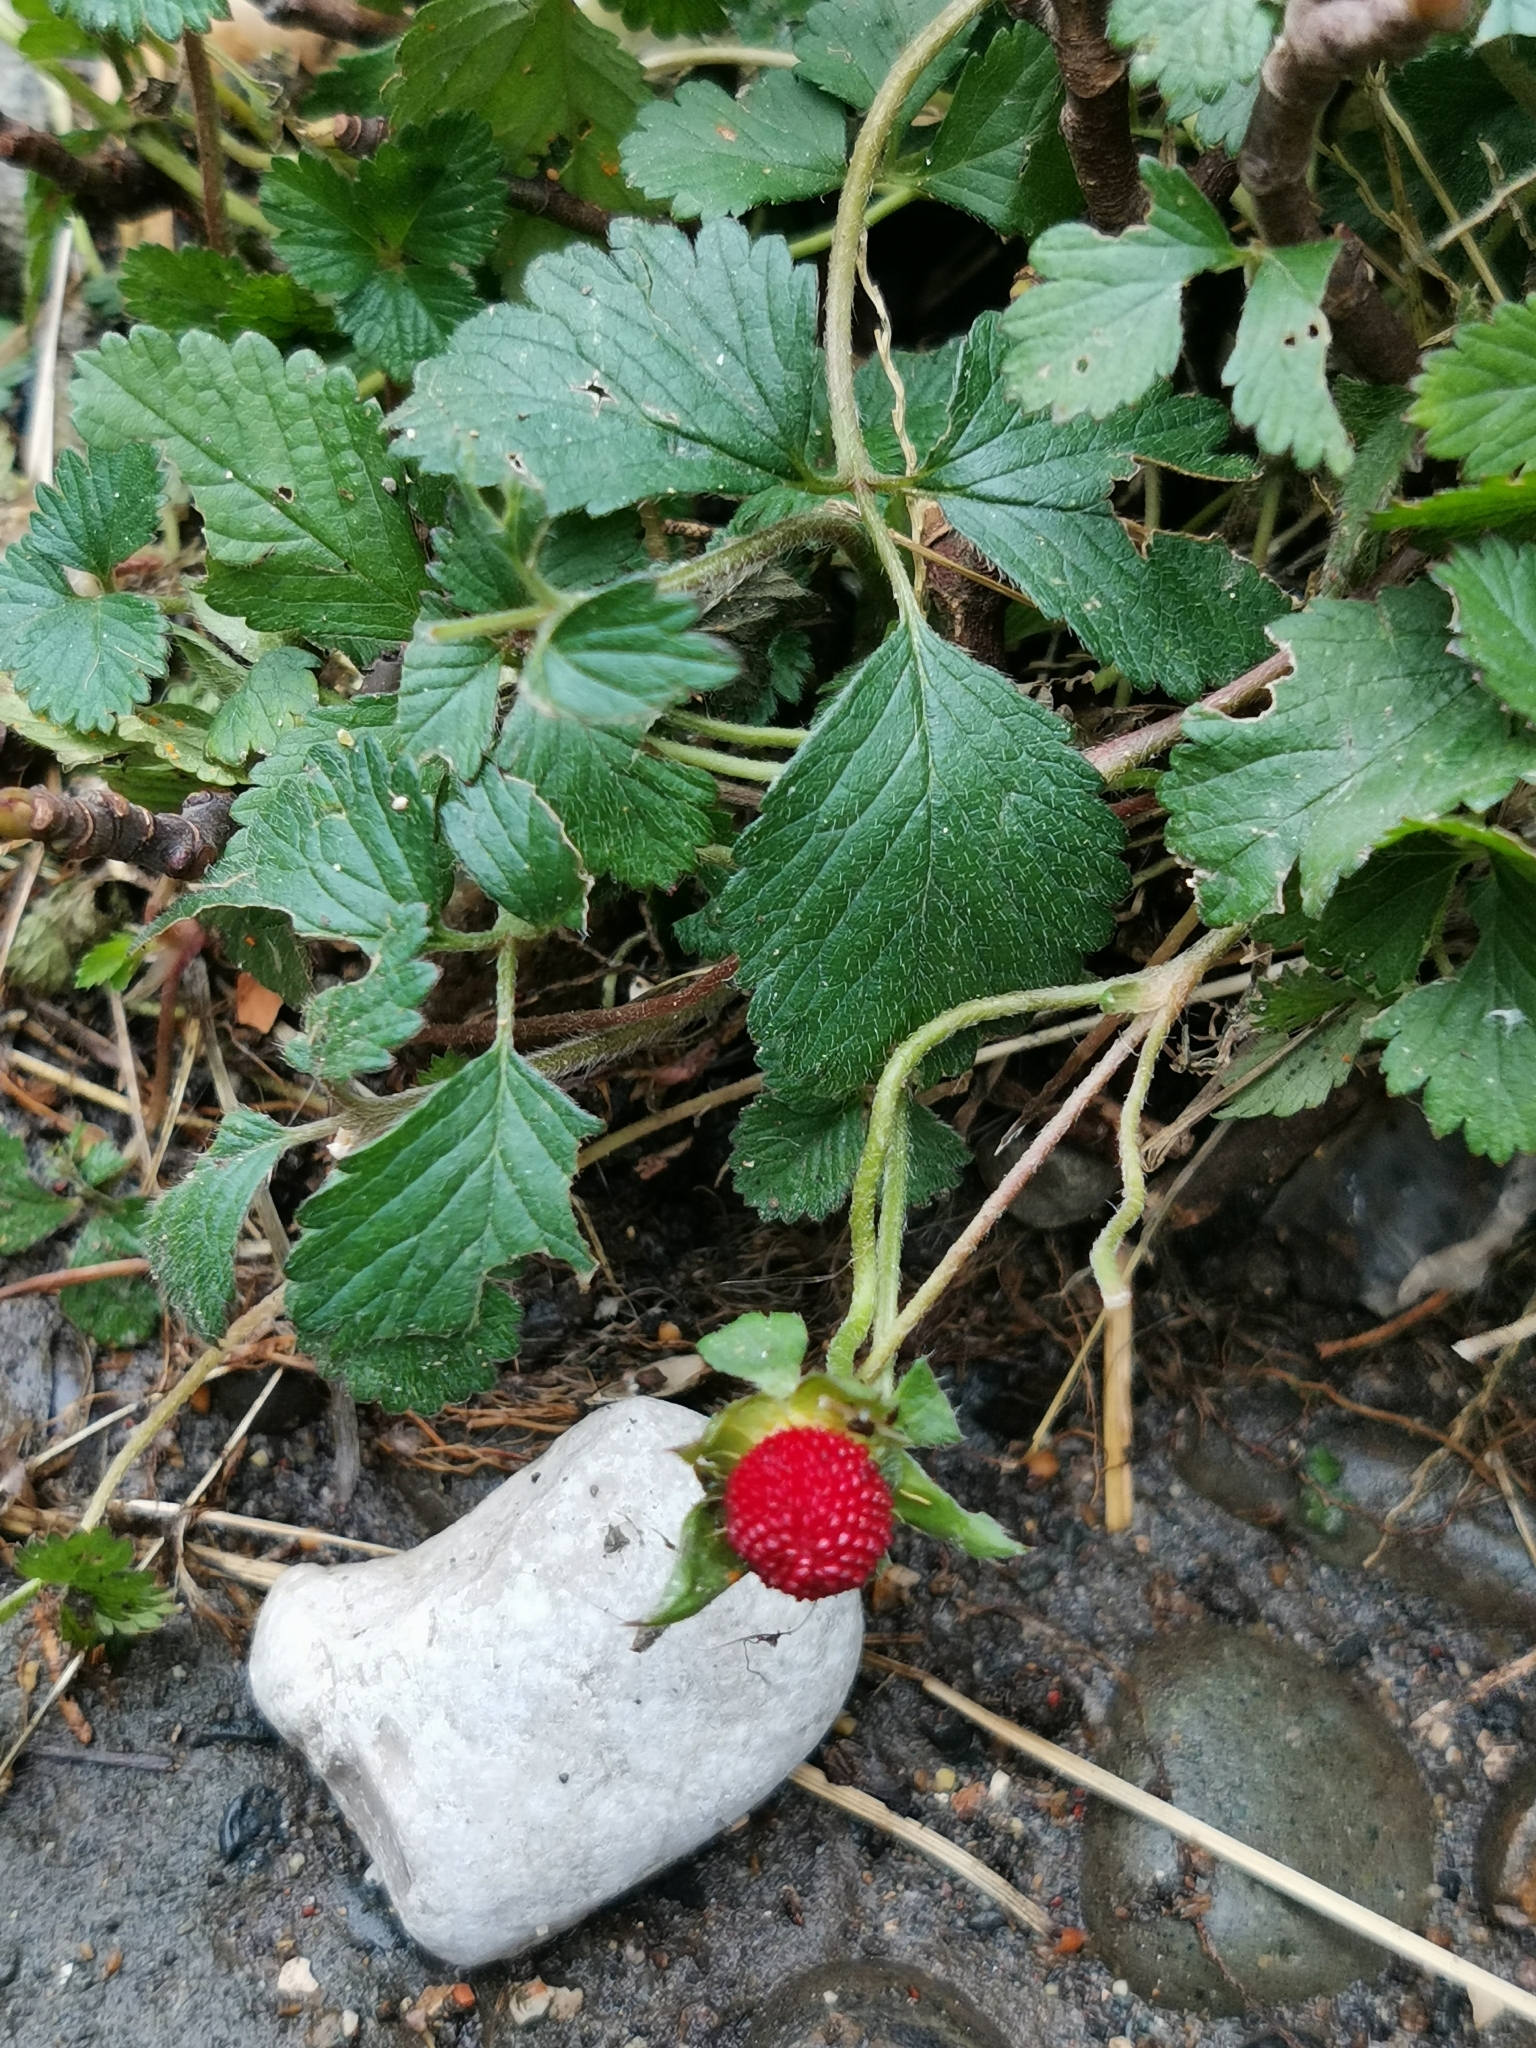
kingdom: Plantae
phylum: Tracheophyta
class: Magnoliopsida
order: Rosales
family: Rosaceae
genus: Potentilla
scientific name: Potentilla indica
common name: Yellow-flowered strawberry
